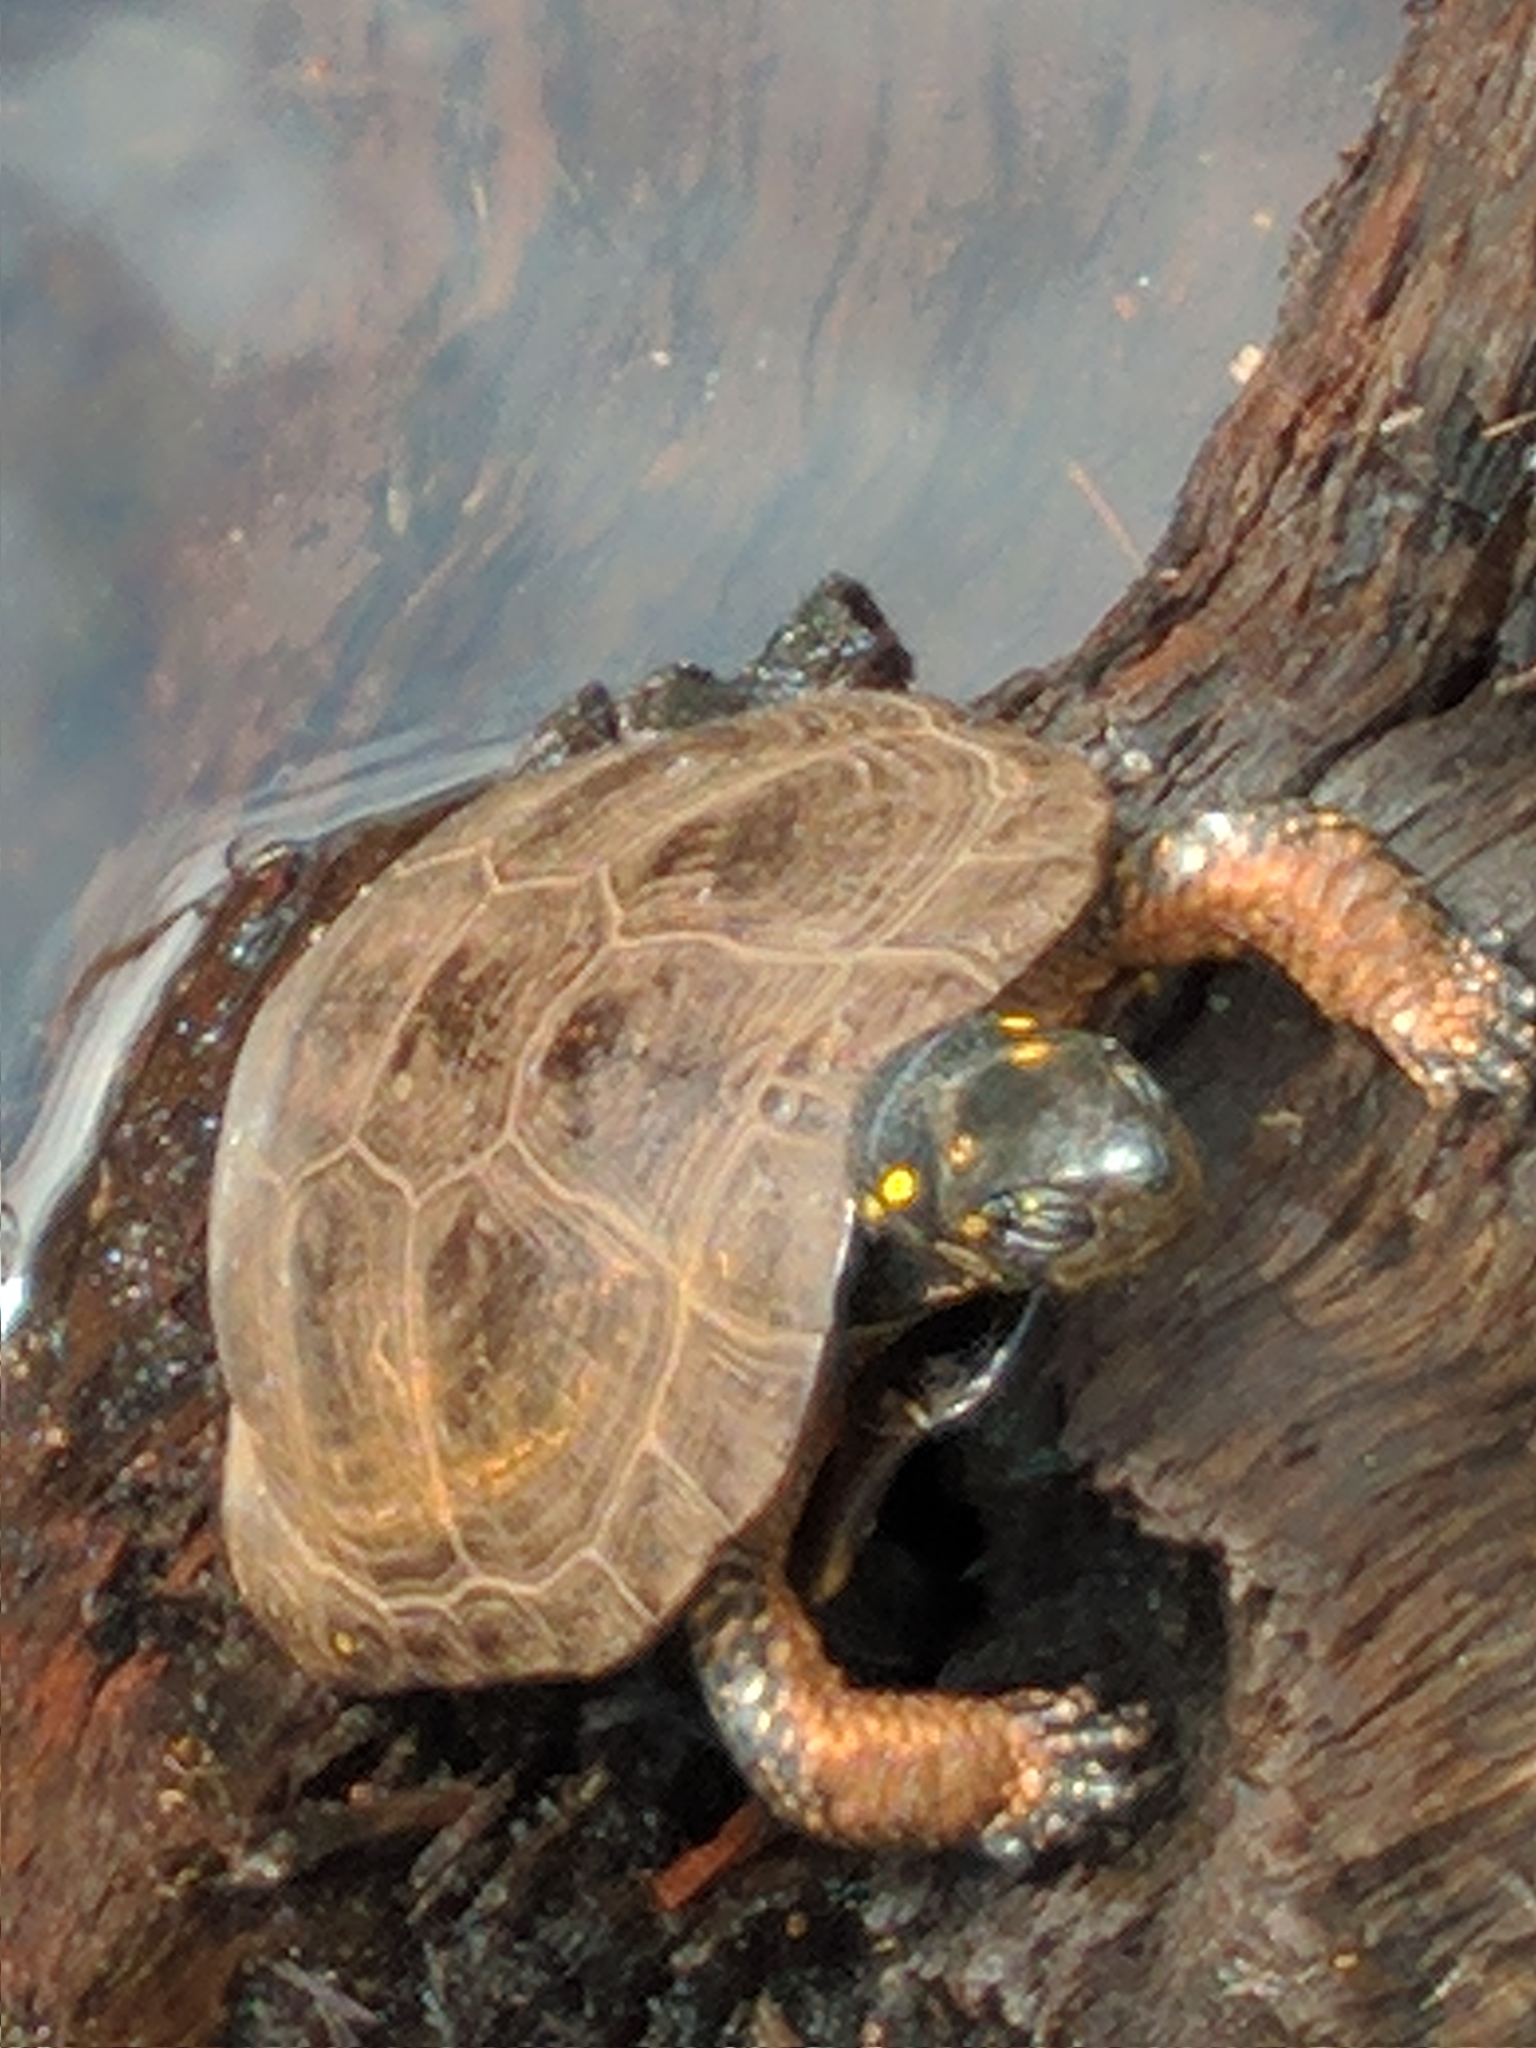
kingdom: Animalia
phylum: Chordata
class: Testudines
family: Emydidae
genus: Clemmys
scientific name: Clemmys guttata
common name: Spotted turtle
